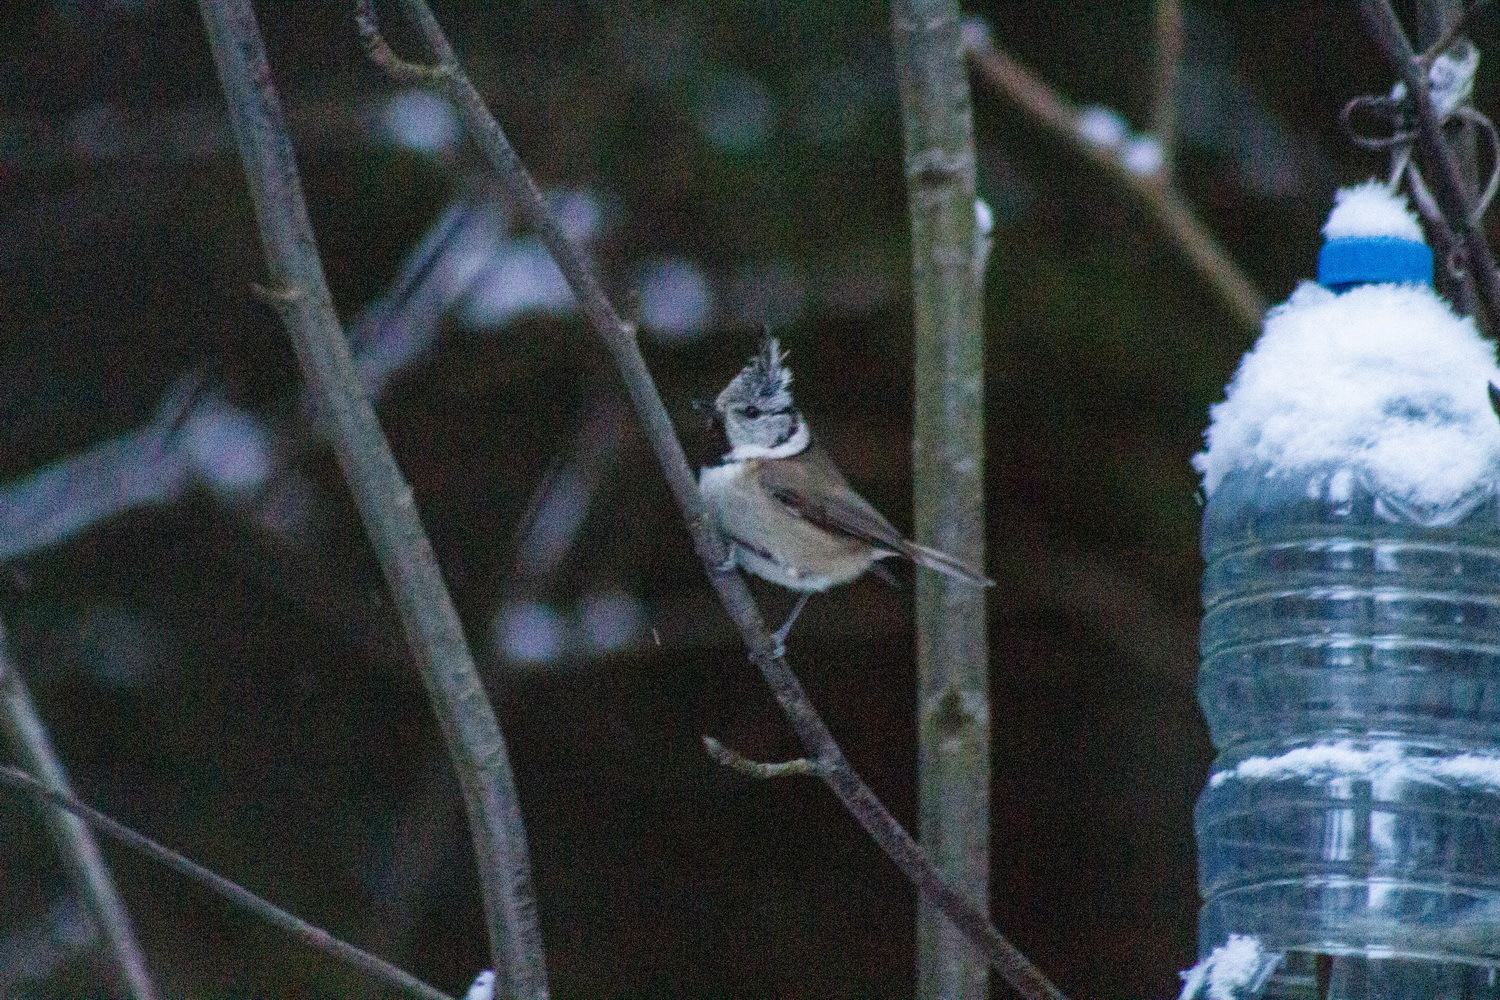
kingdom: Animalia
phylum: Chordata
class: Aves
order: Passeriformes
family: Paridae
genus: Lophophanes
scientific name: Lophophanes cristatus
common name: European crested tit
